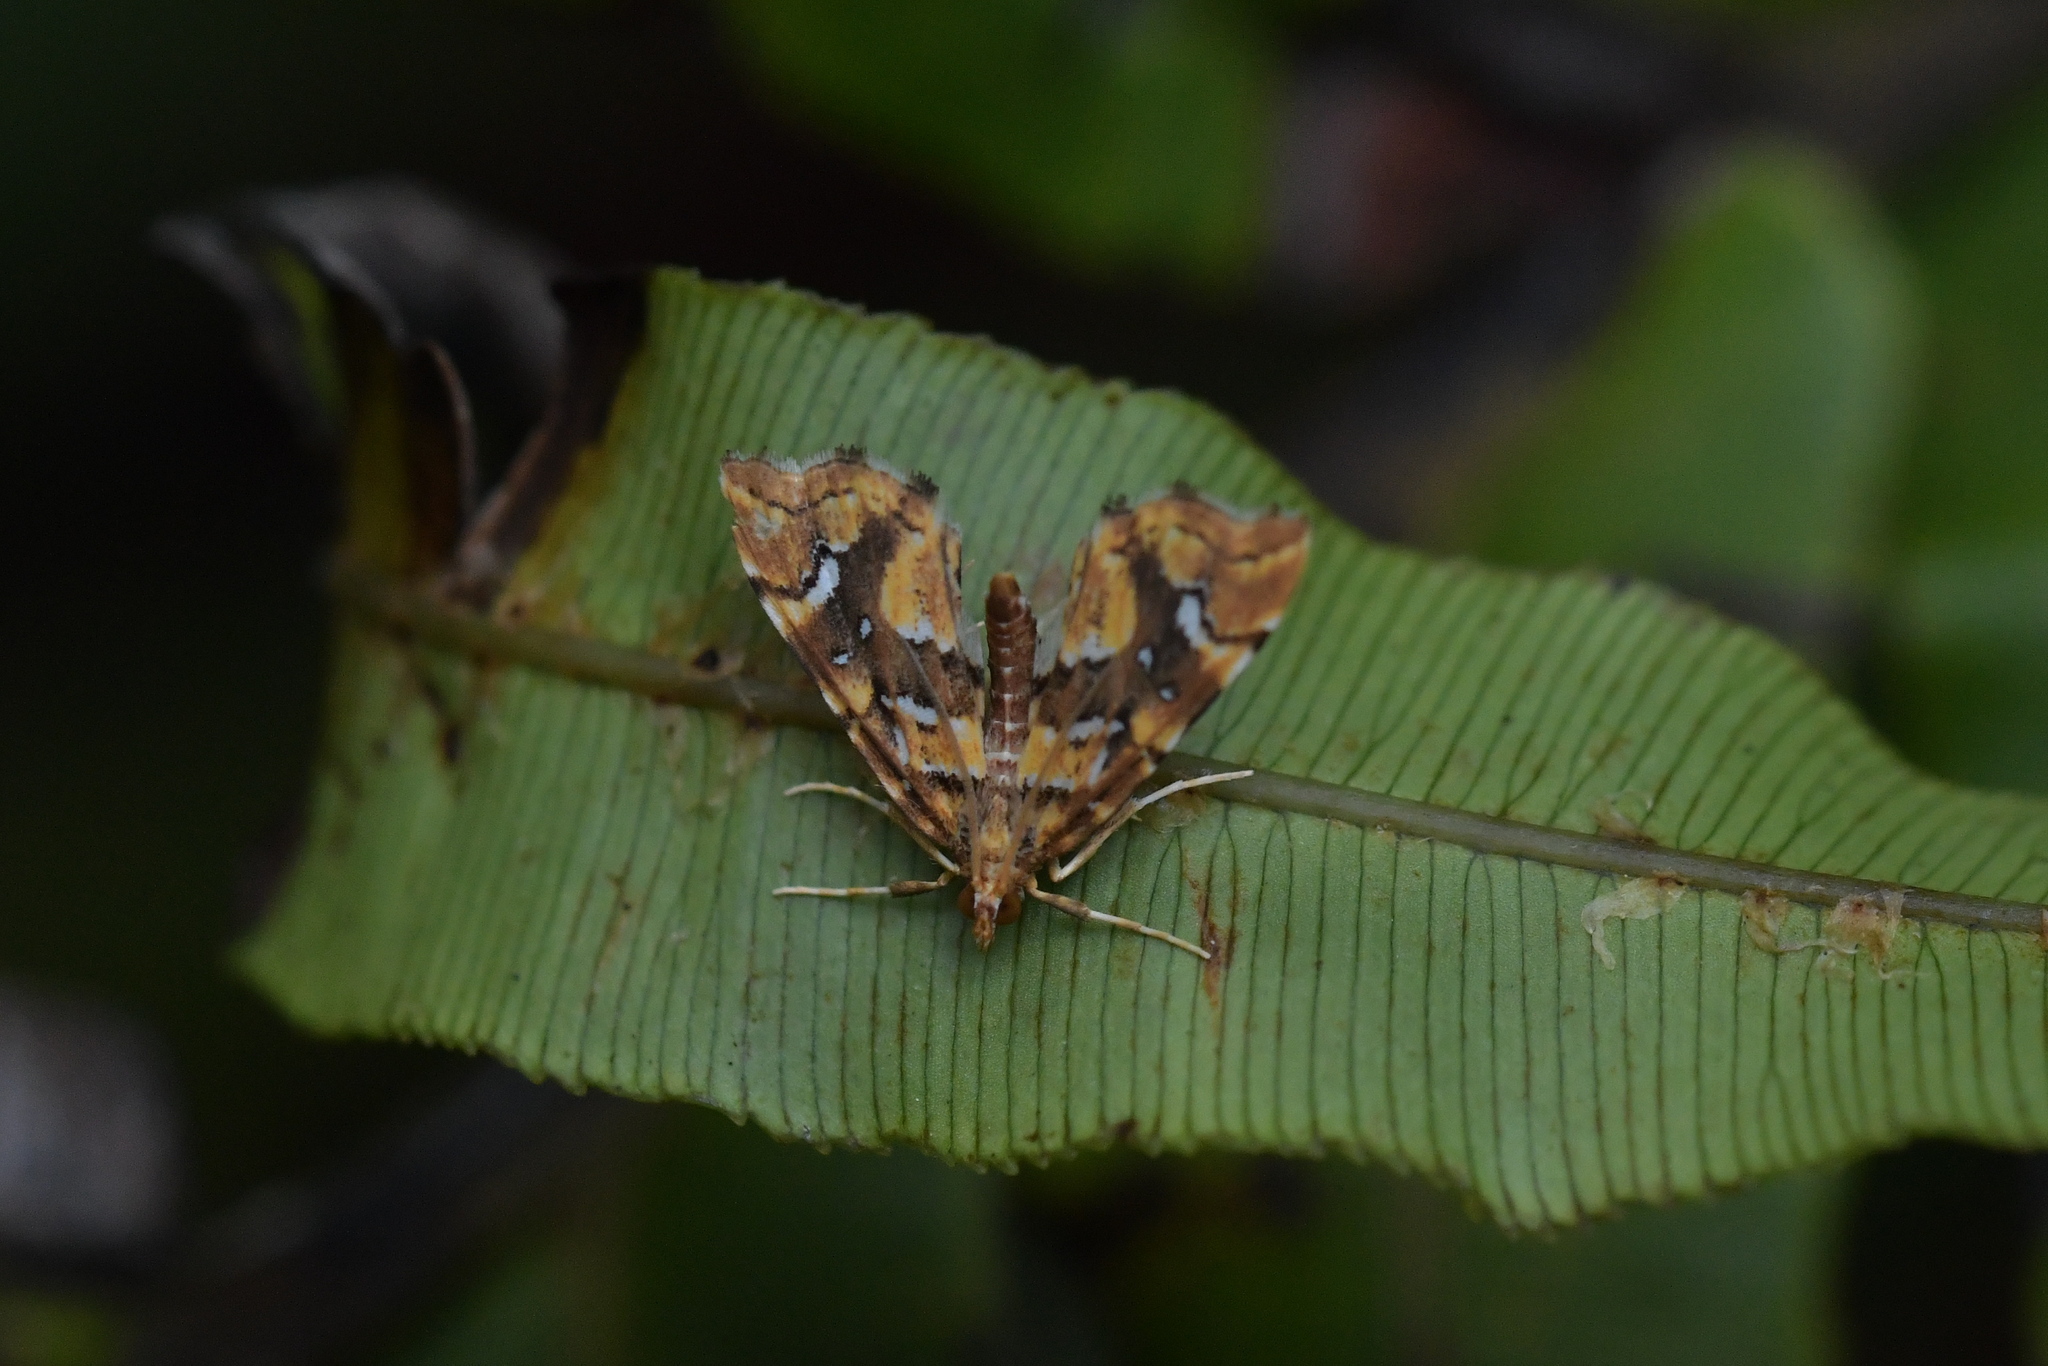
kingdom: Animalia
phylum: Arthropoda
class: Insecta
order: Lepidoptera
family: Pyralidae
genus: Musotima
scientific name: Musotima nitidalis
